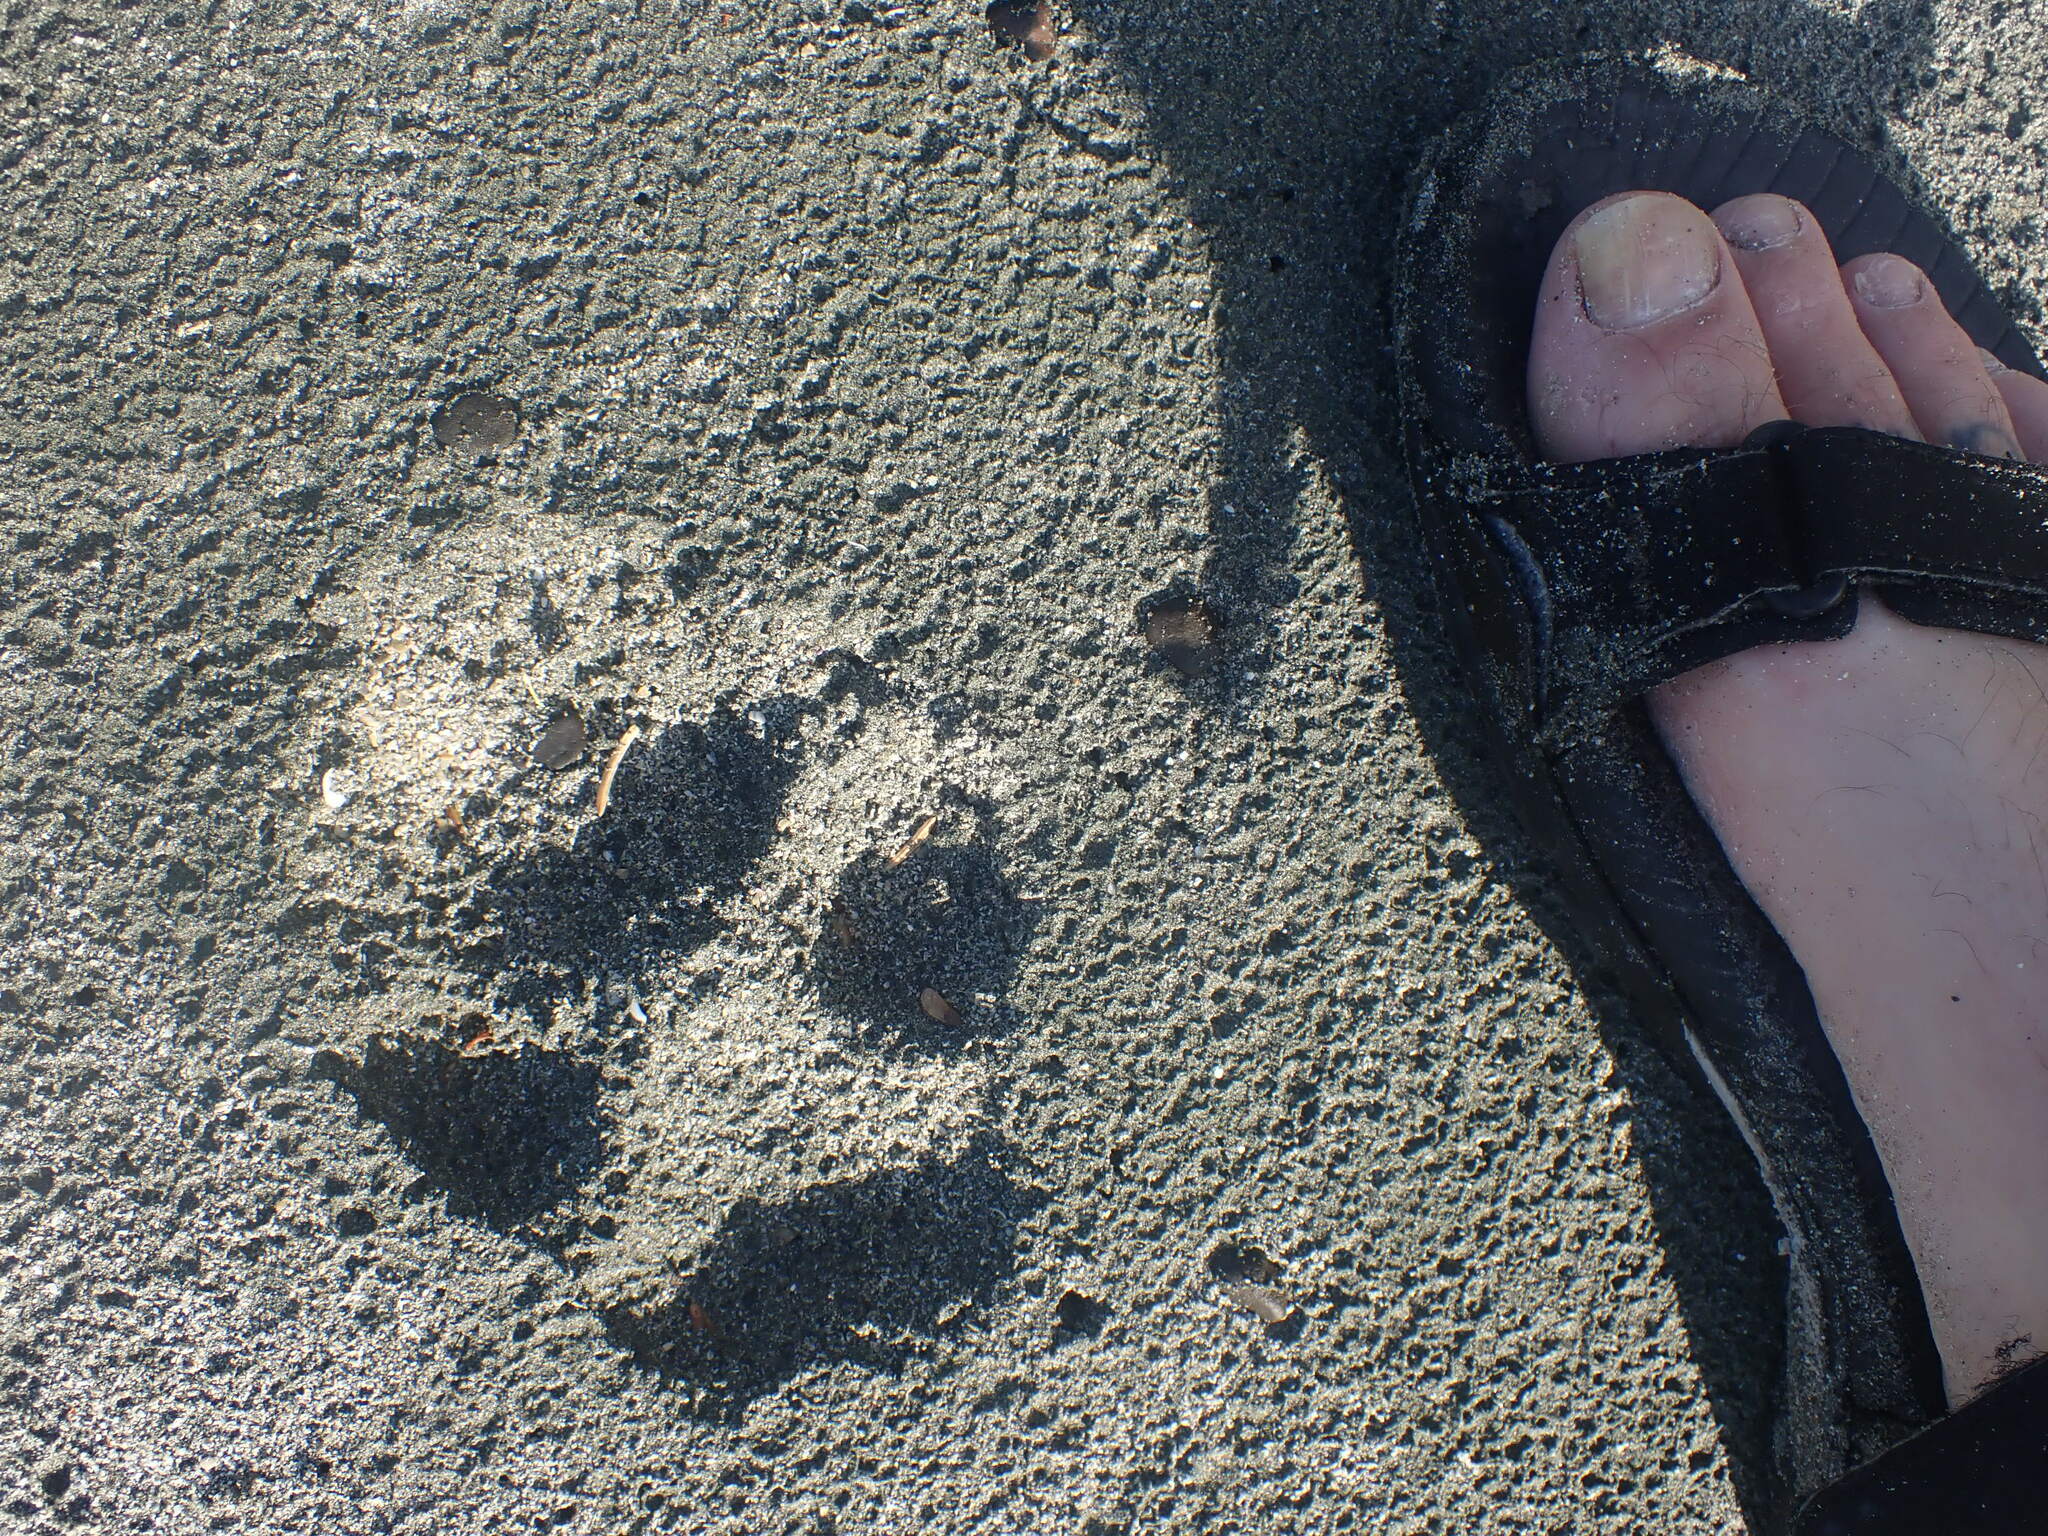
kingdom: Animalia
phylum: Chordata
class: Mammalia
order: Carnivora
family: Canidae
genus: Canis
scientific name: Canis lupus
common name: Gray wolf
